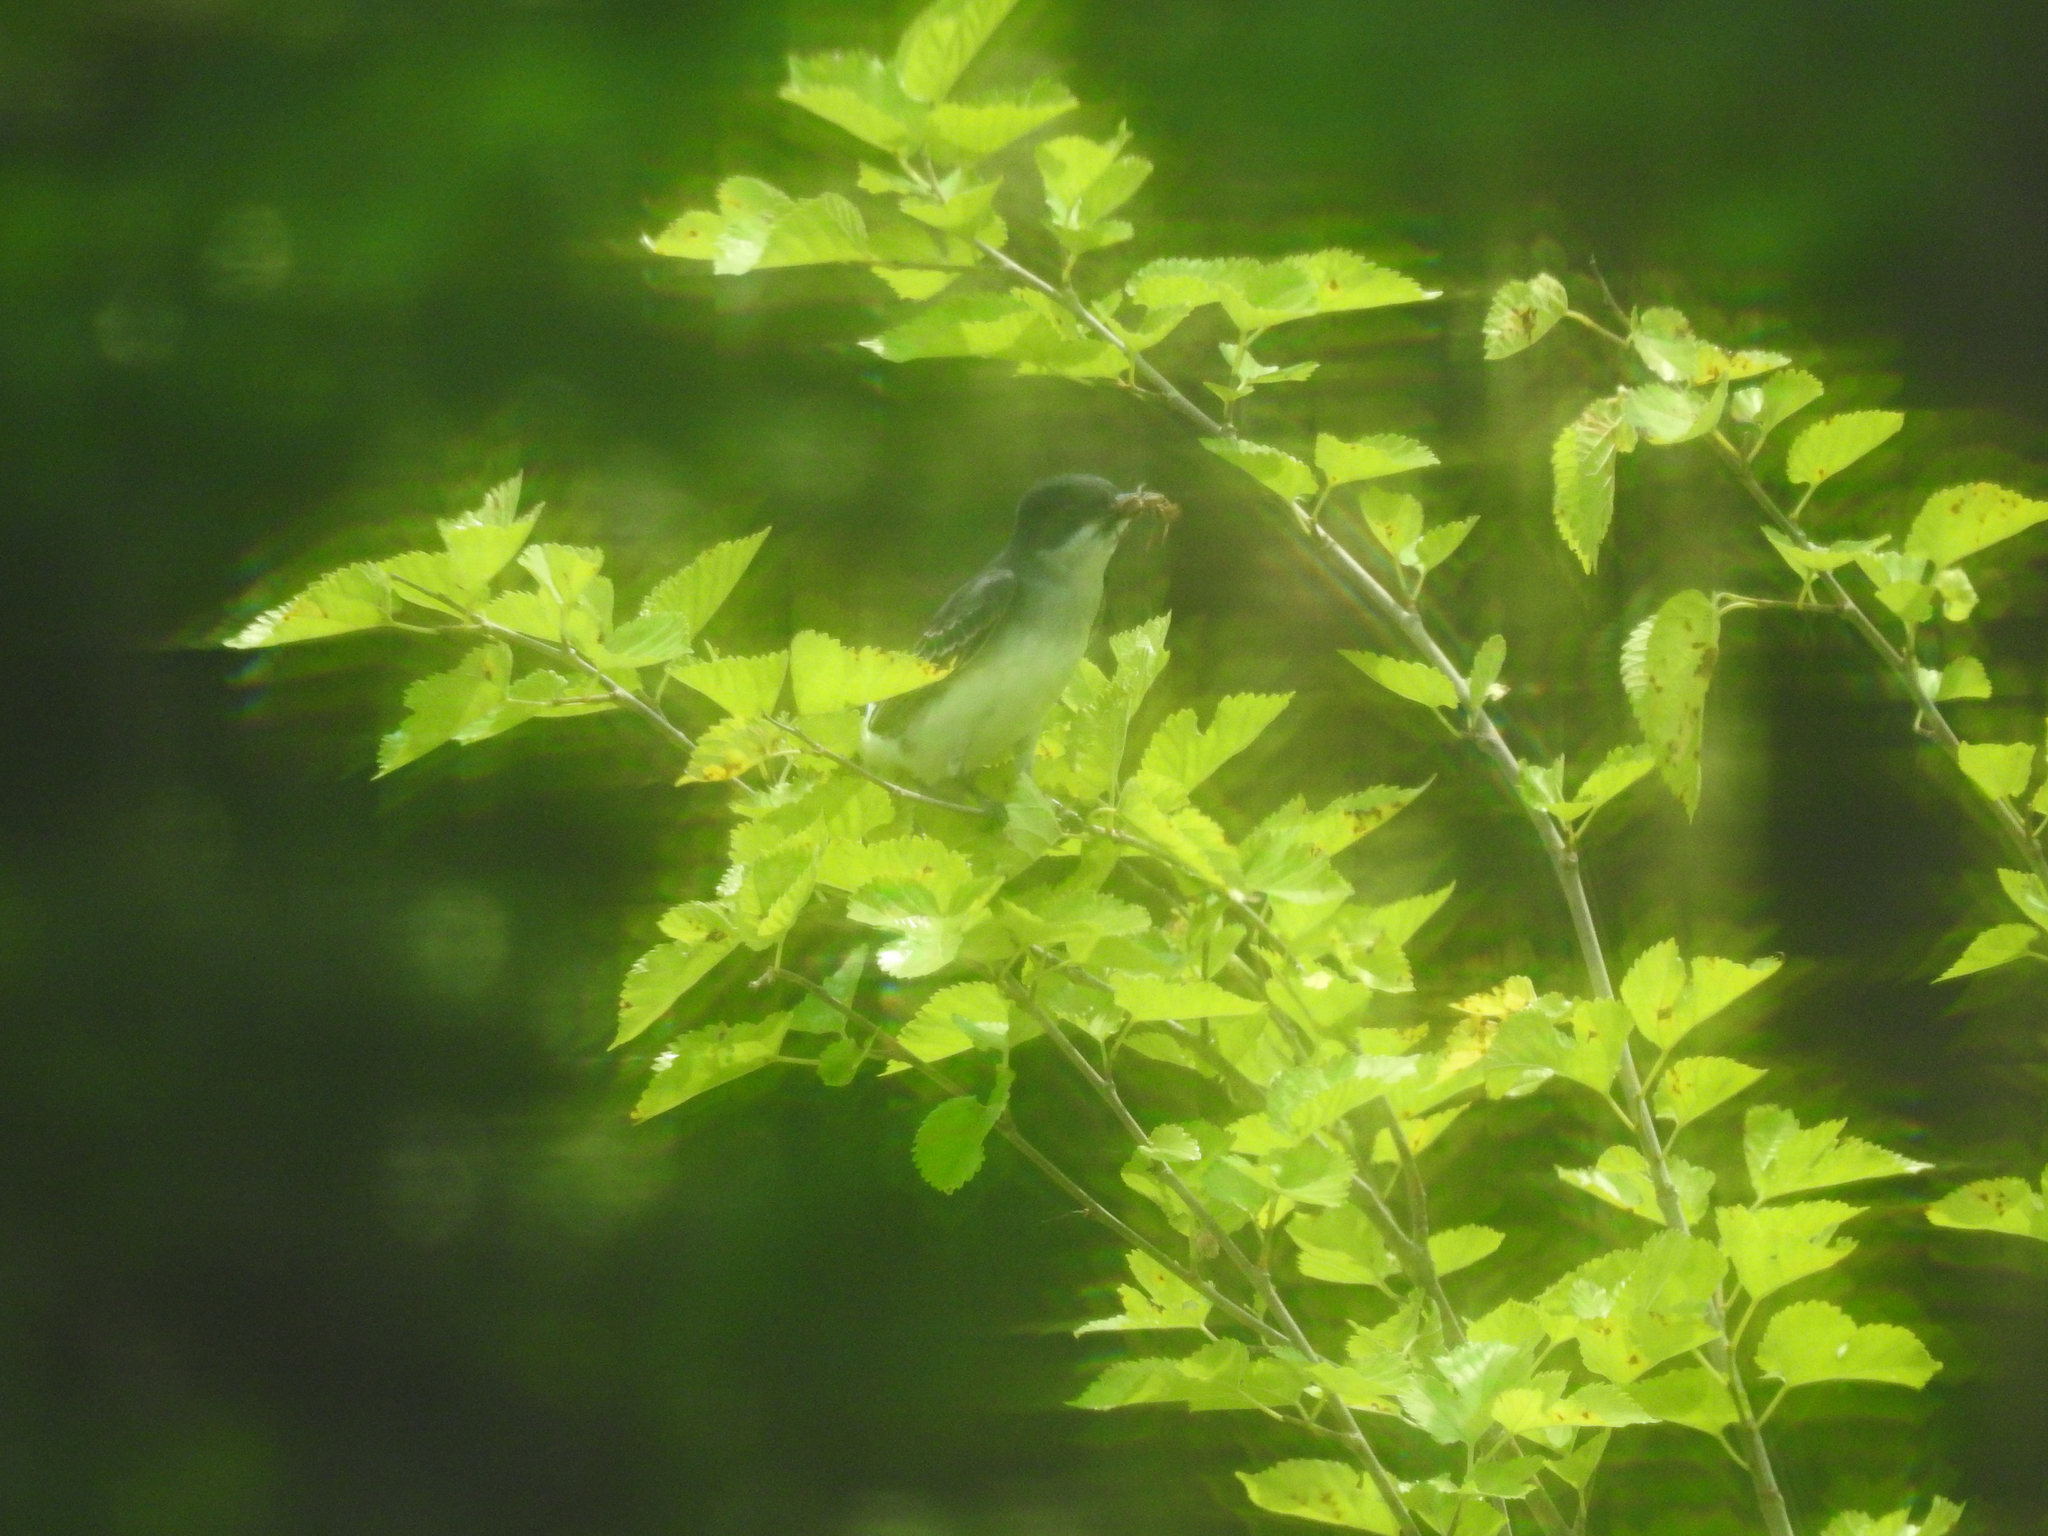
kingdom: Animalia
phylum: Chordata
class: Aves
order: Passeriformes
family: Tyrannidae
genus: Tyrannus
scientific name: Tyrannus tyrannus
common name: Eastern kingbird
